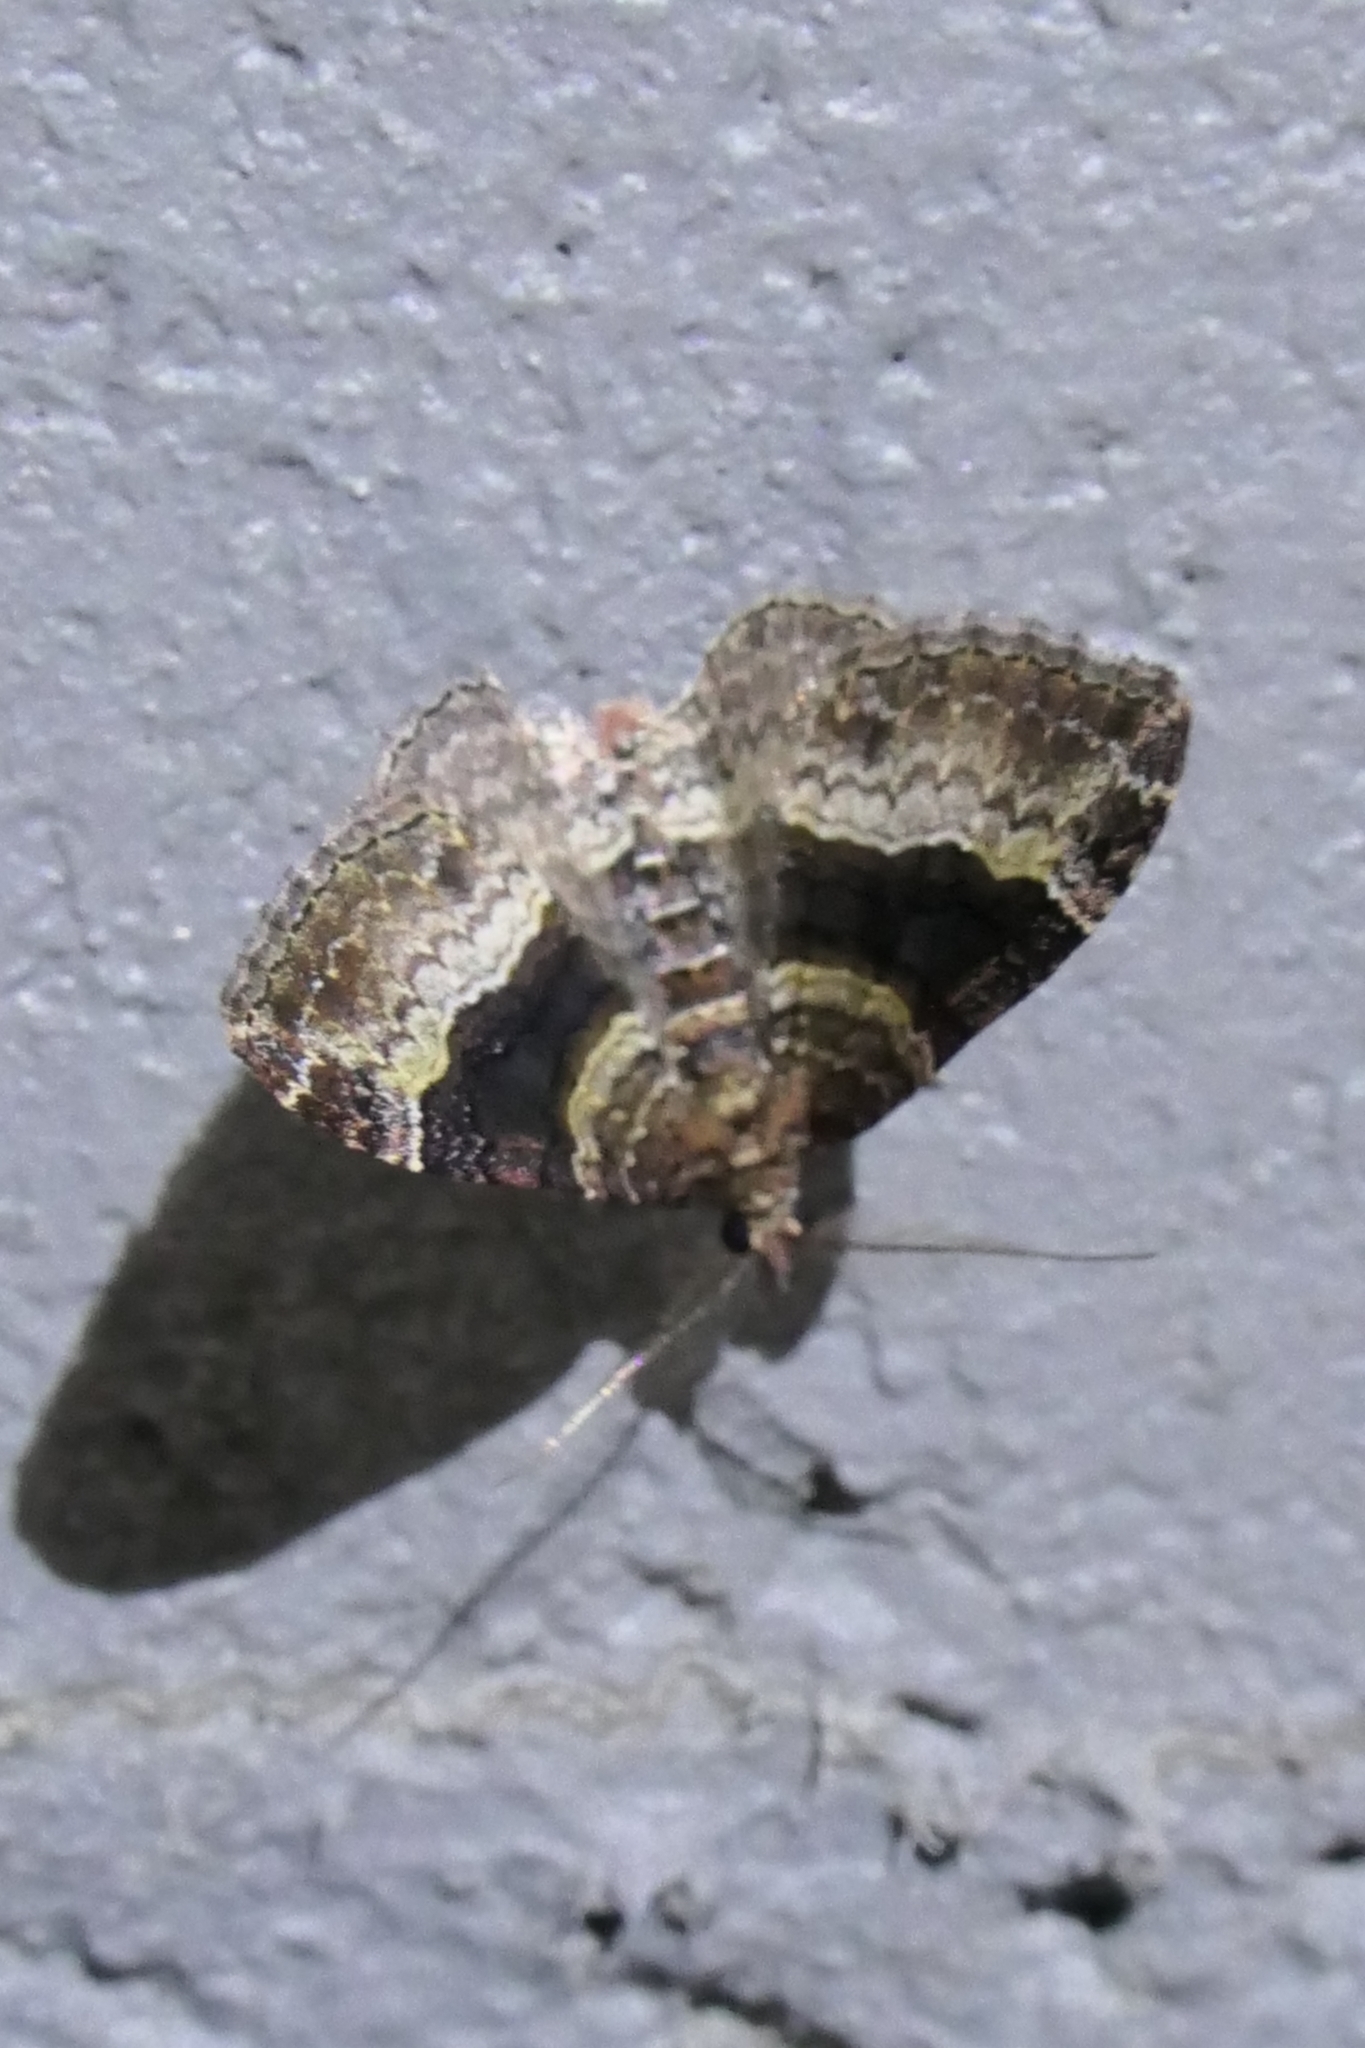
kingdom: Animalia
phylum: Arthropoda
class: Insecta
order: Lepidoptera
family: Geometridae
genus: Epyaxa
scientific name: Epyaxa lucidata
